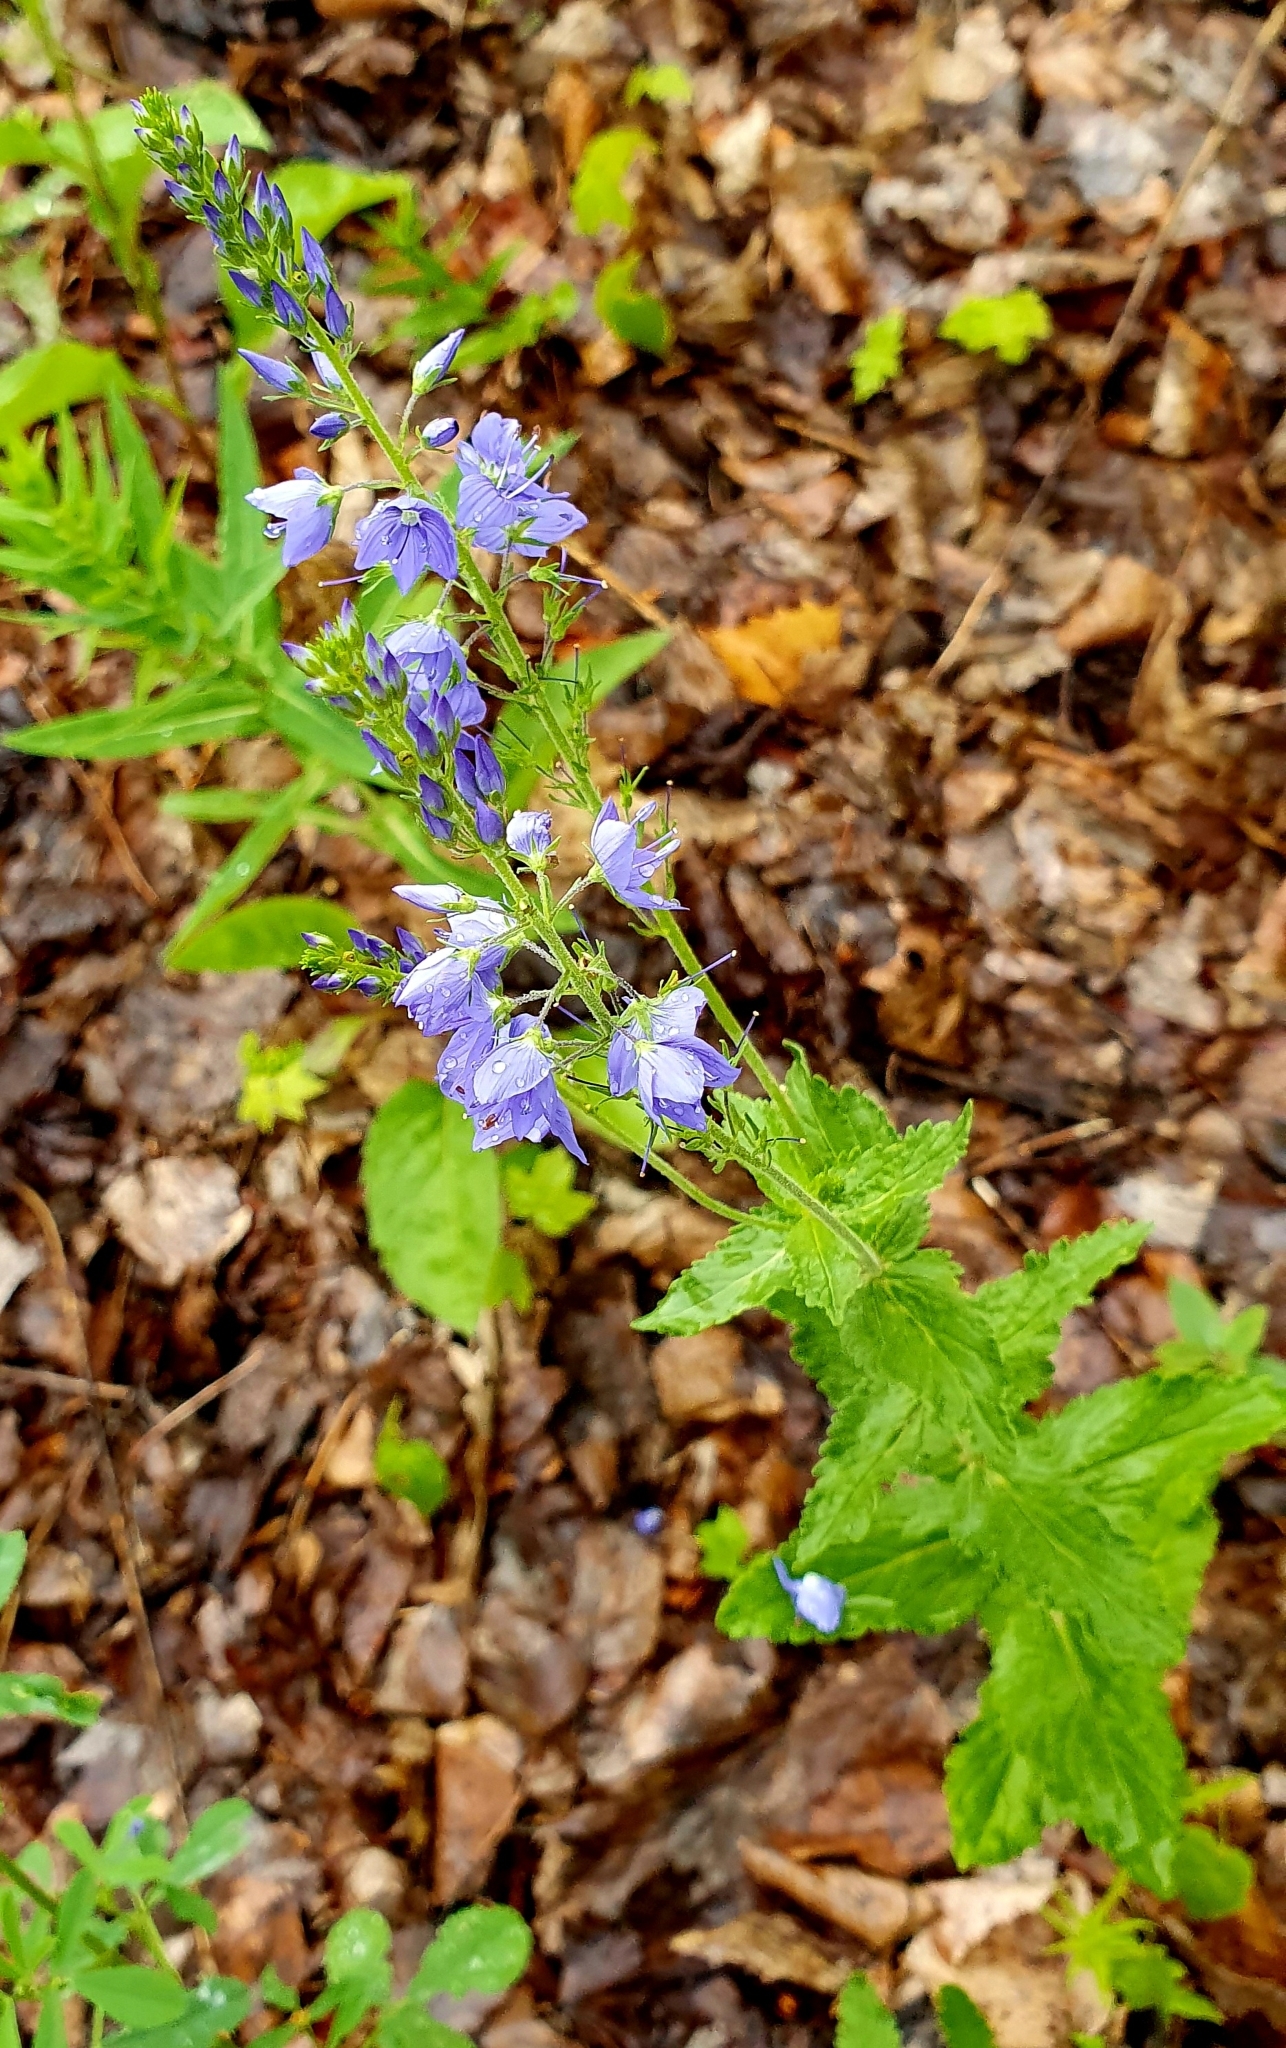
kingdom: Plantae
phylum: Tracheophyta
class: Magnoliopsida
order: Lamiales
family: Plantaginaceae
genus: Veronica
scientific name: Veronica teucrium
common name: Large speedwell
